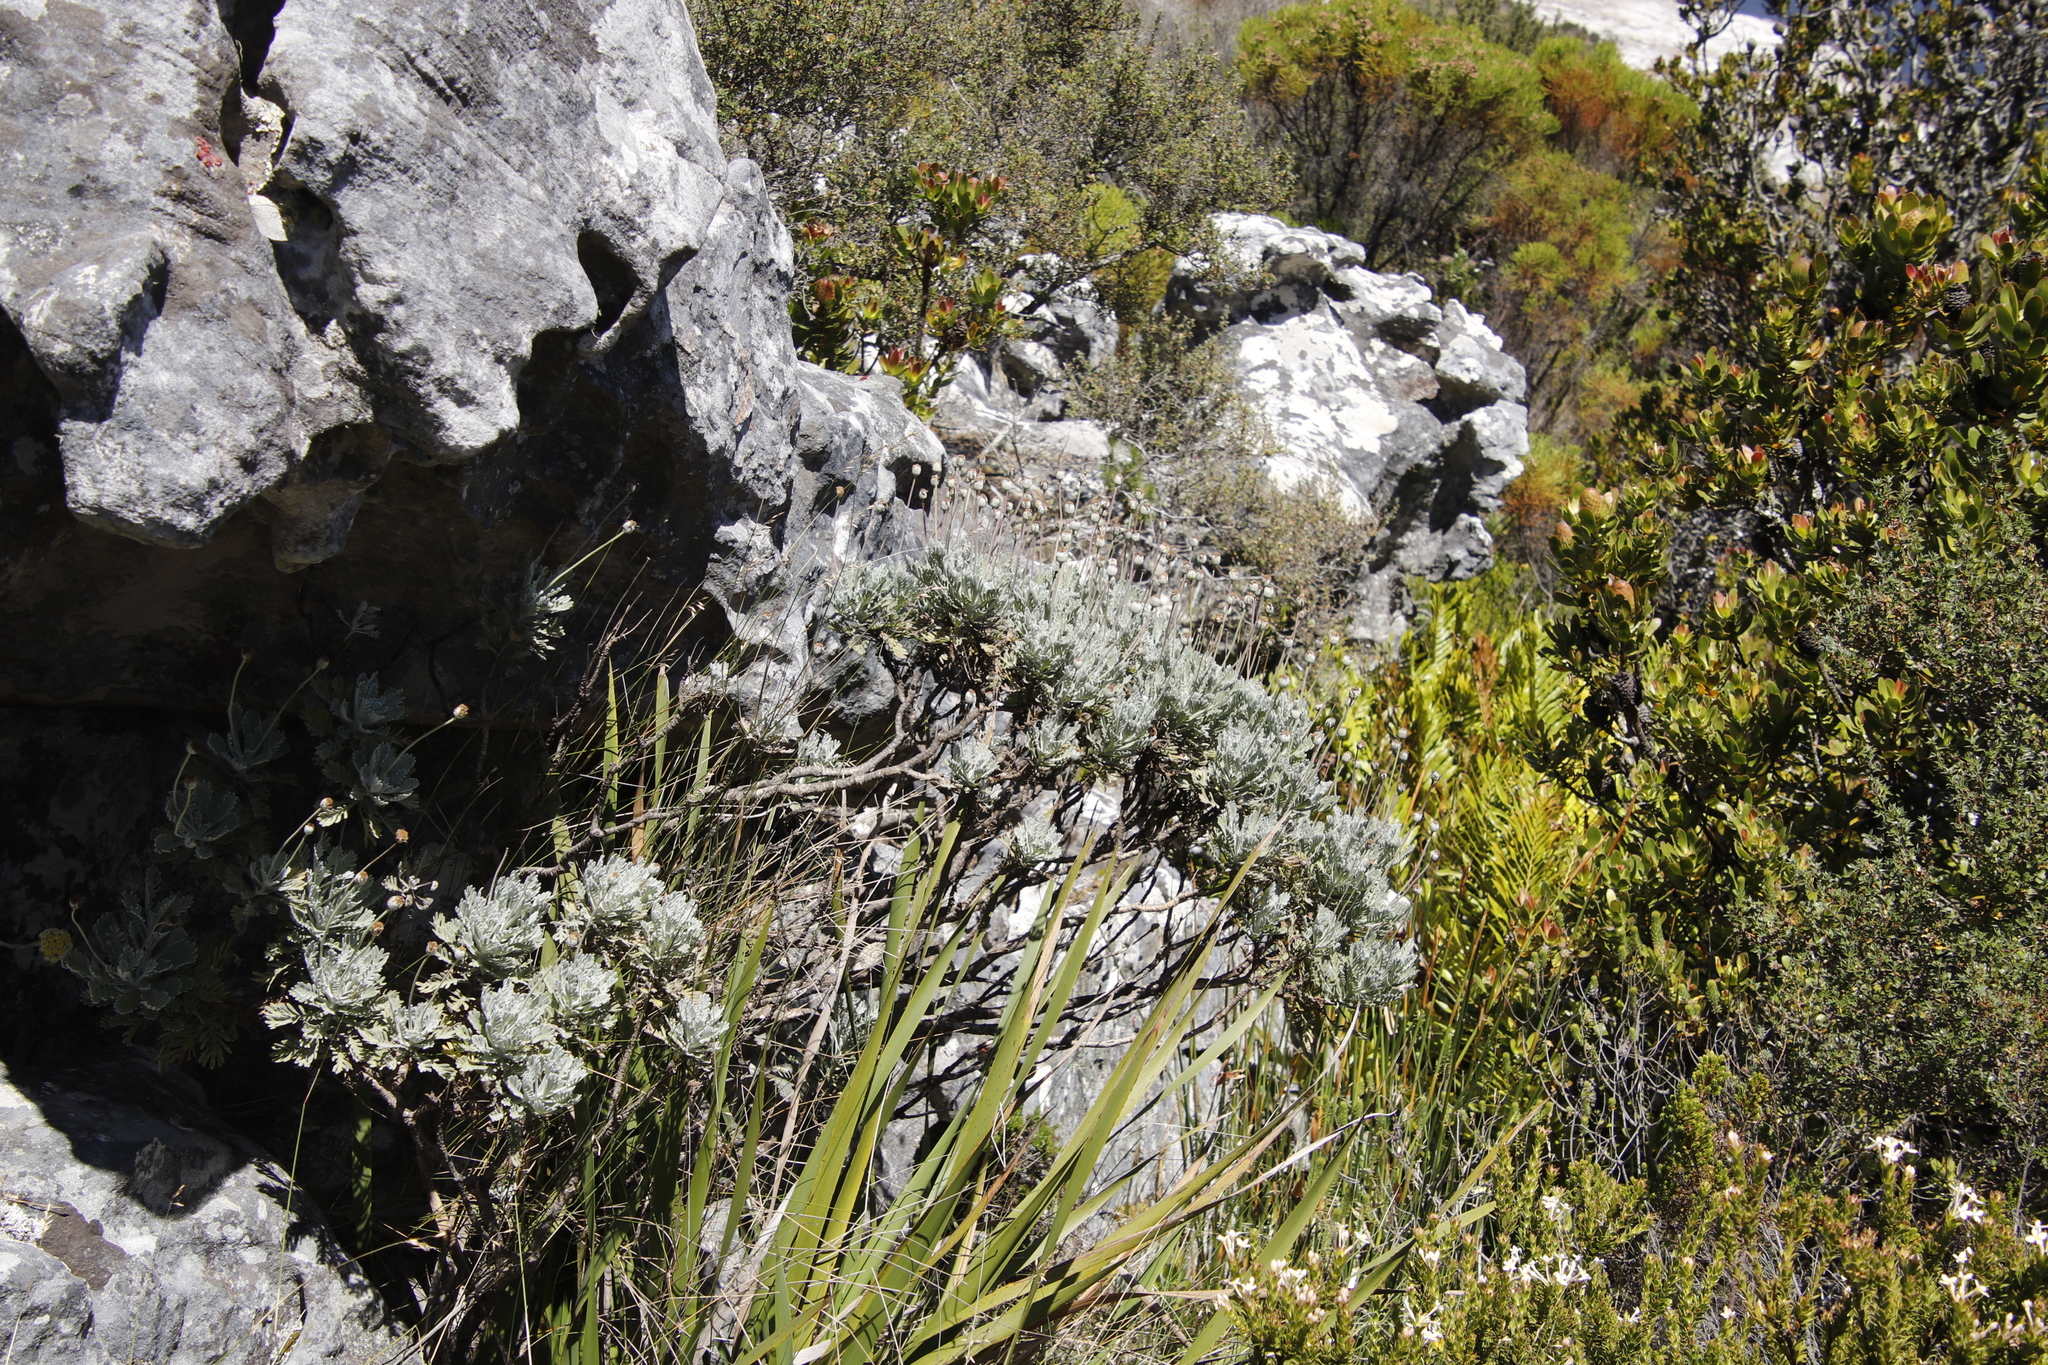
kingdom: Plantae
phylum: Tracheophyta
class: Magnoliopsida
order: Asterales
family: Asteraceae
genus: Euryops
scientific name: Euryops pectinatus
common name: Gray-leaf euryops
